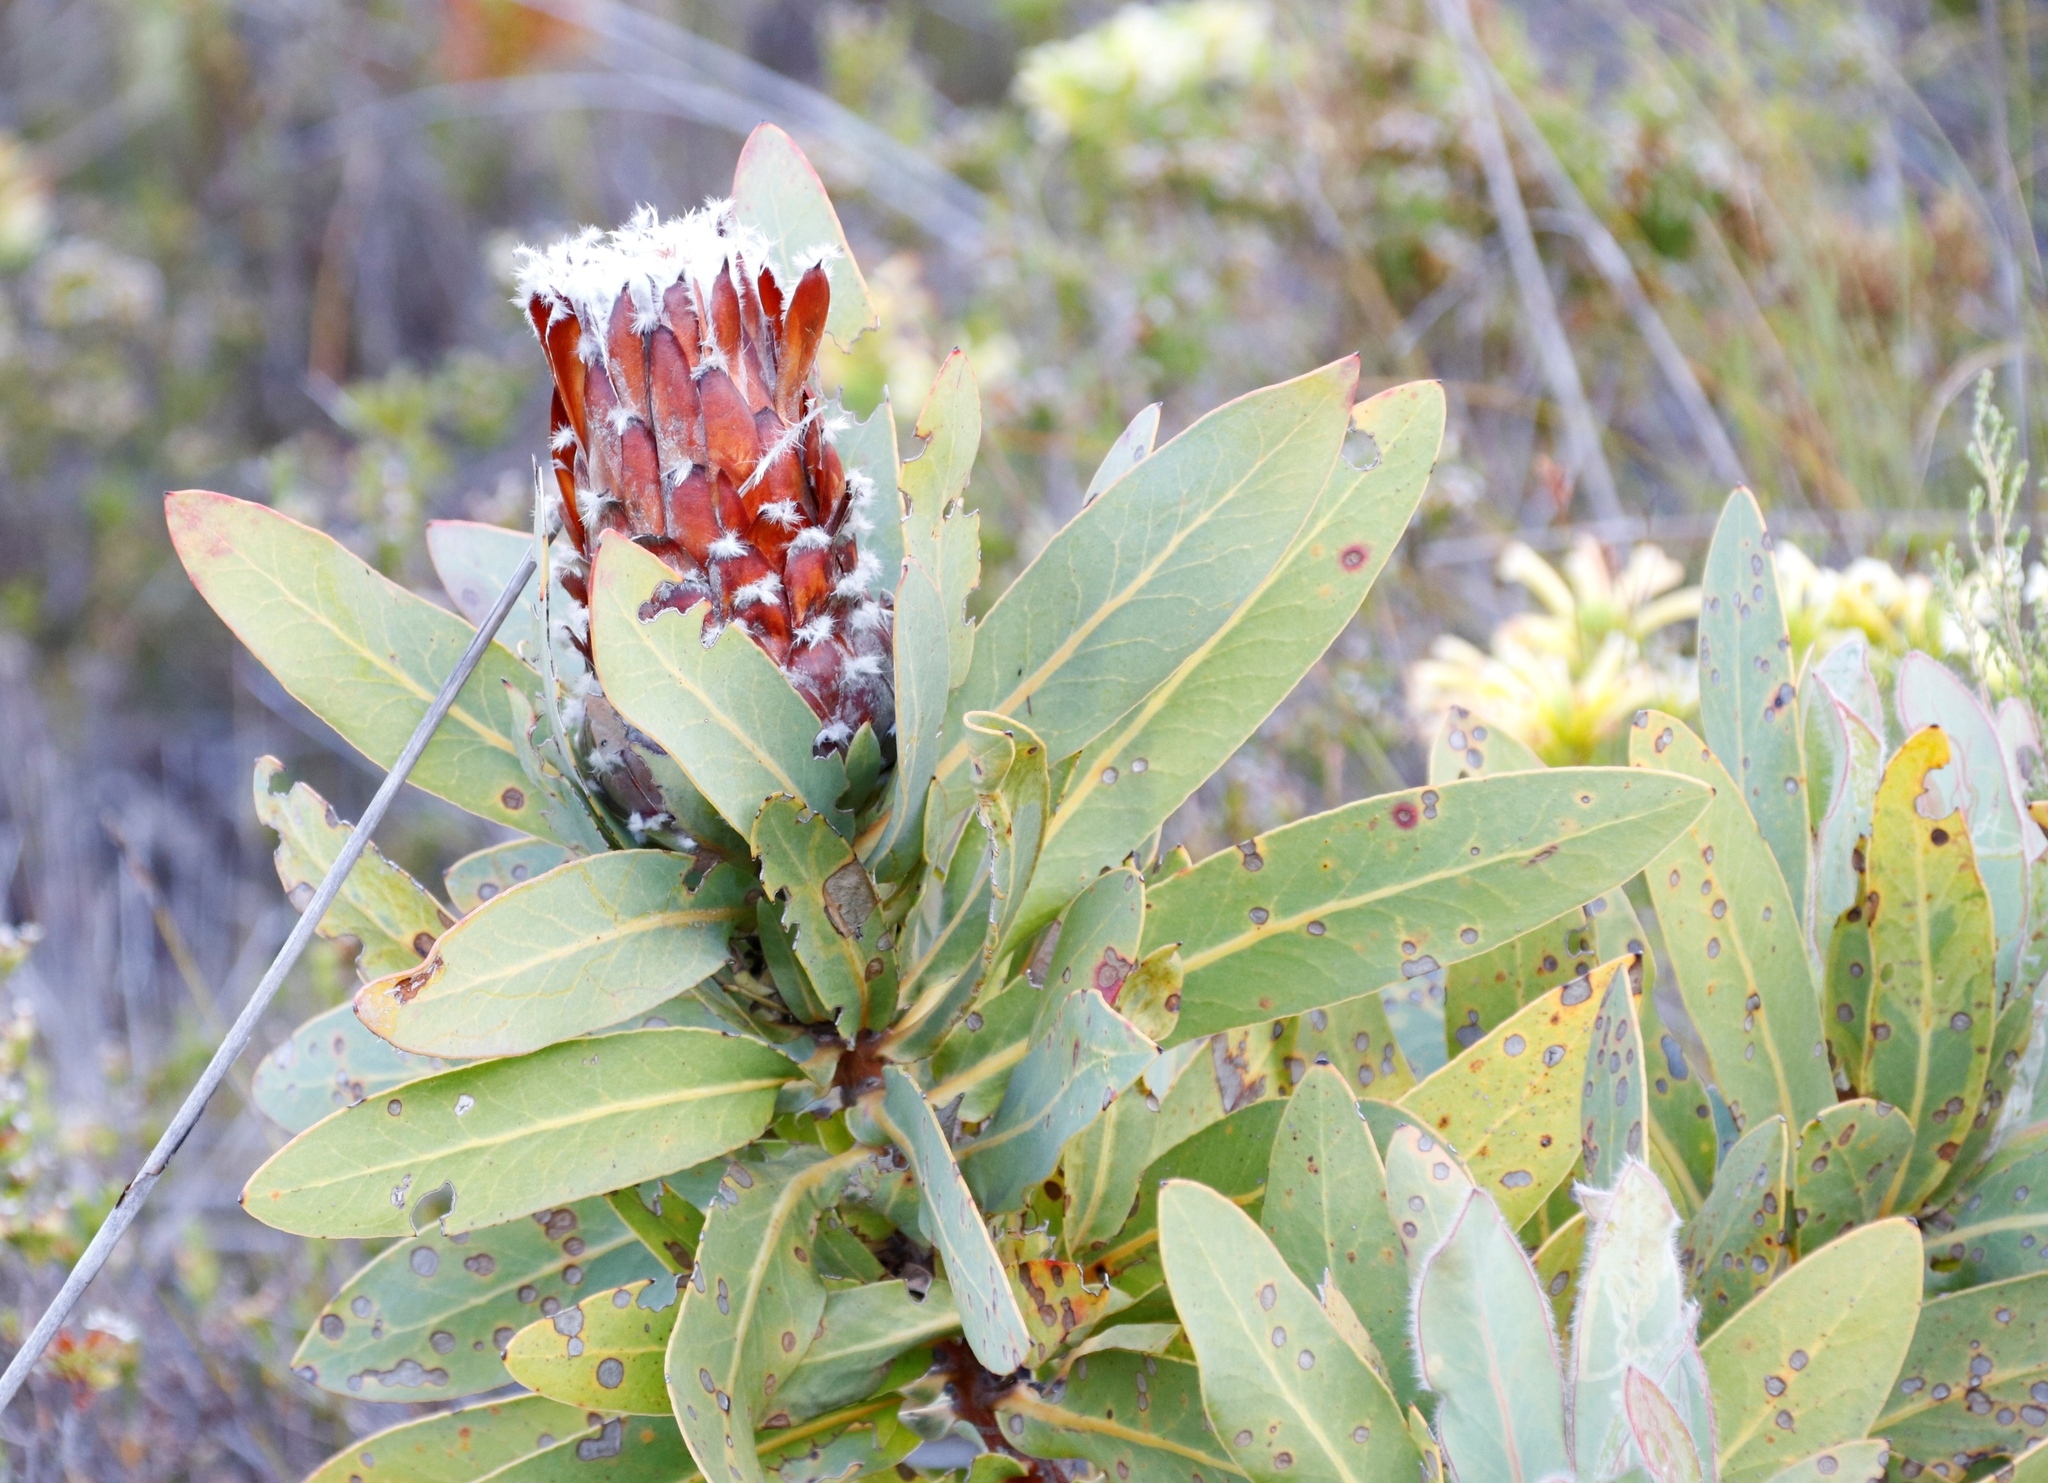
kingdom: Plantae
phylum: Tracheophyta
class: Magnoliopsida
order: Proteales
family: Proteaceae
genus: Protea
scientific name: Protea magnifica
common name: Bearded sugarbush
